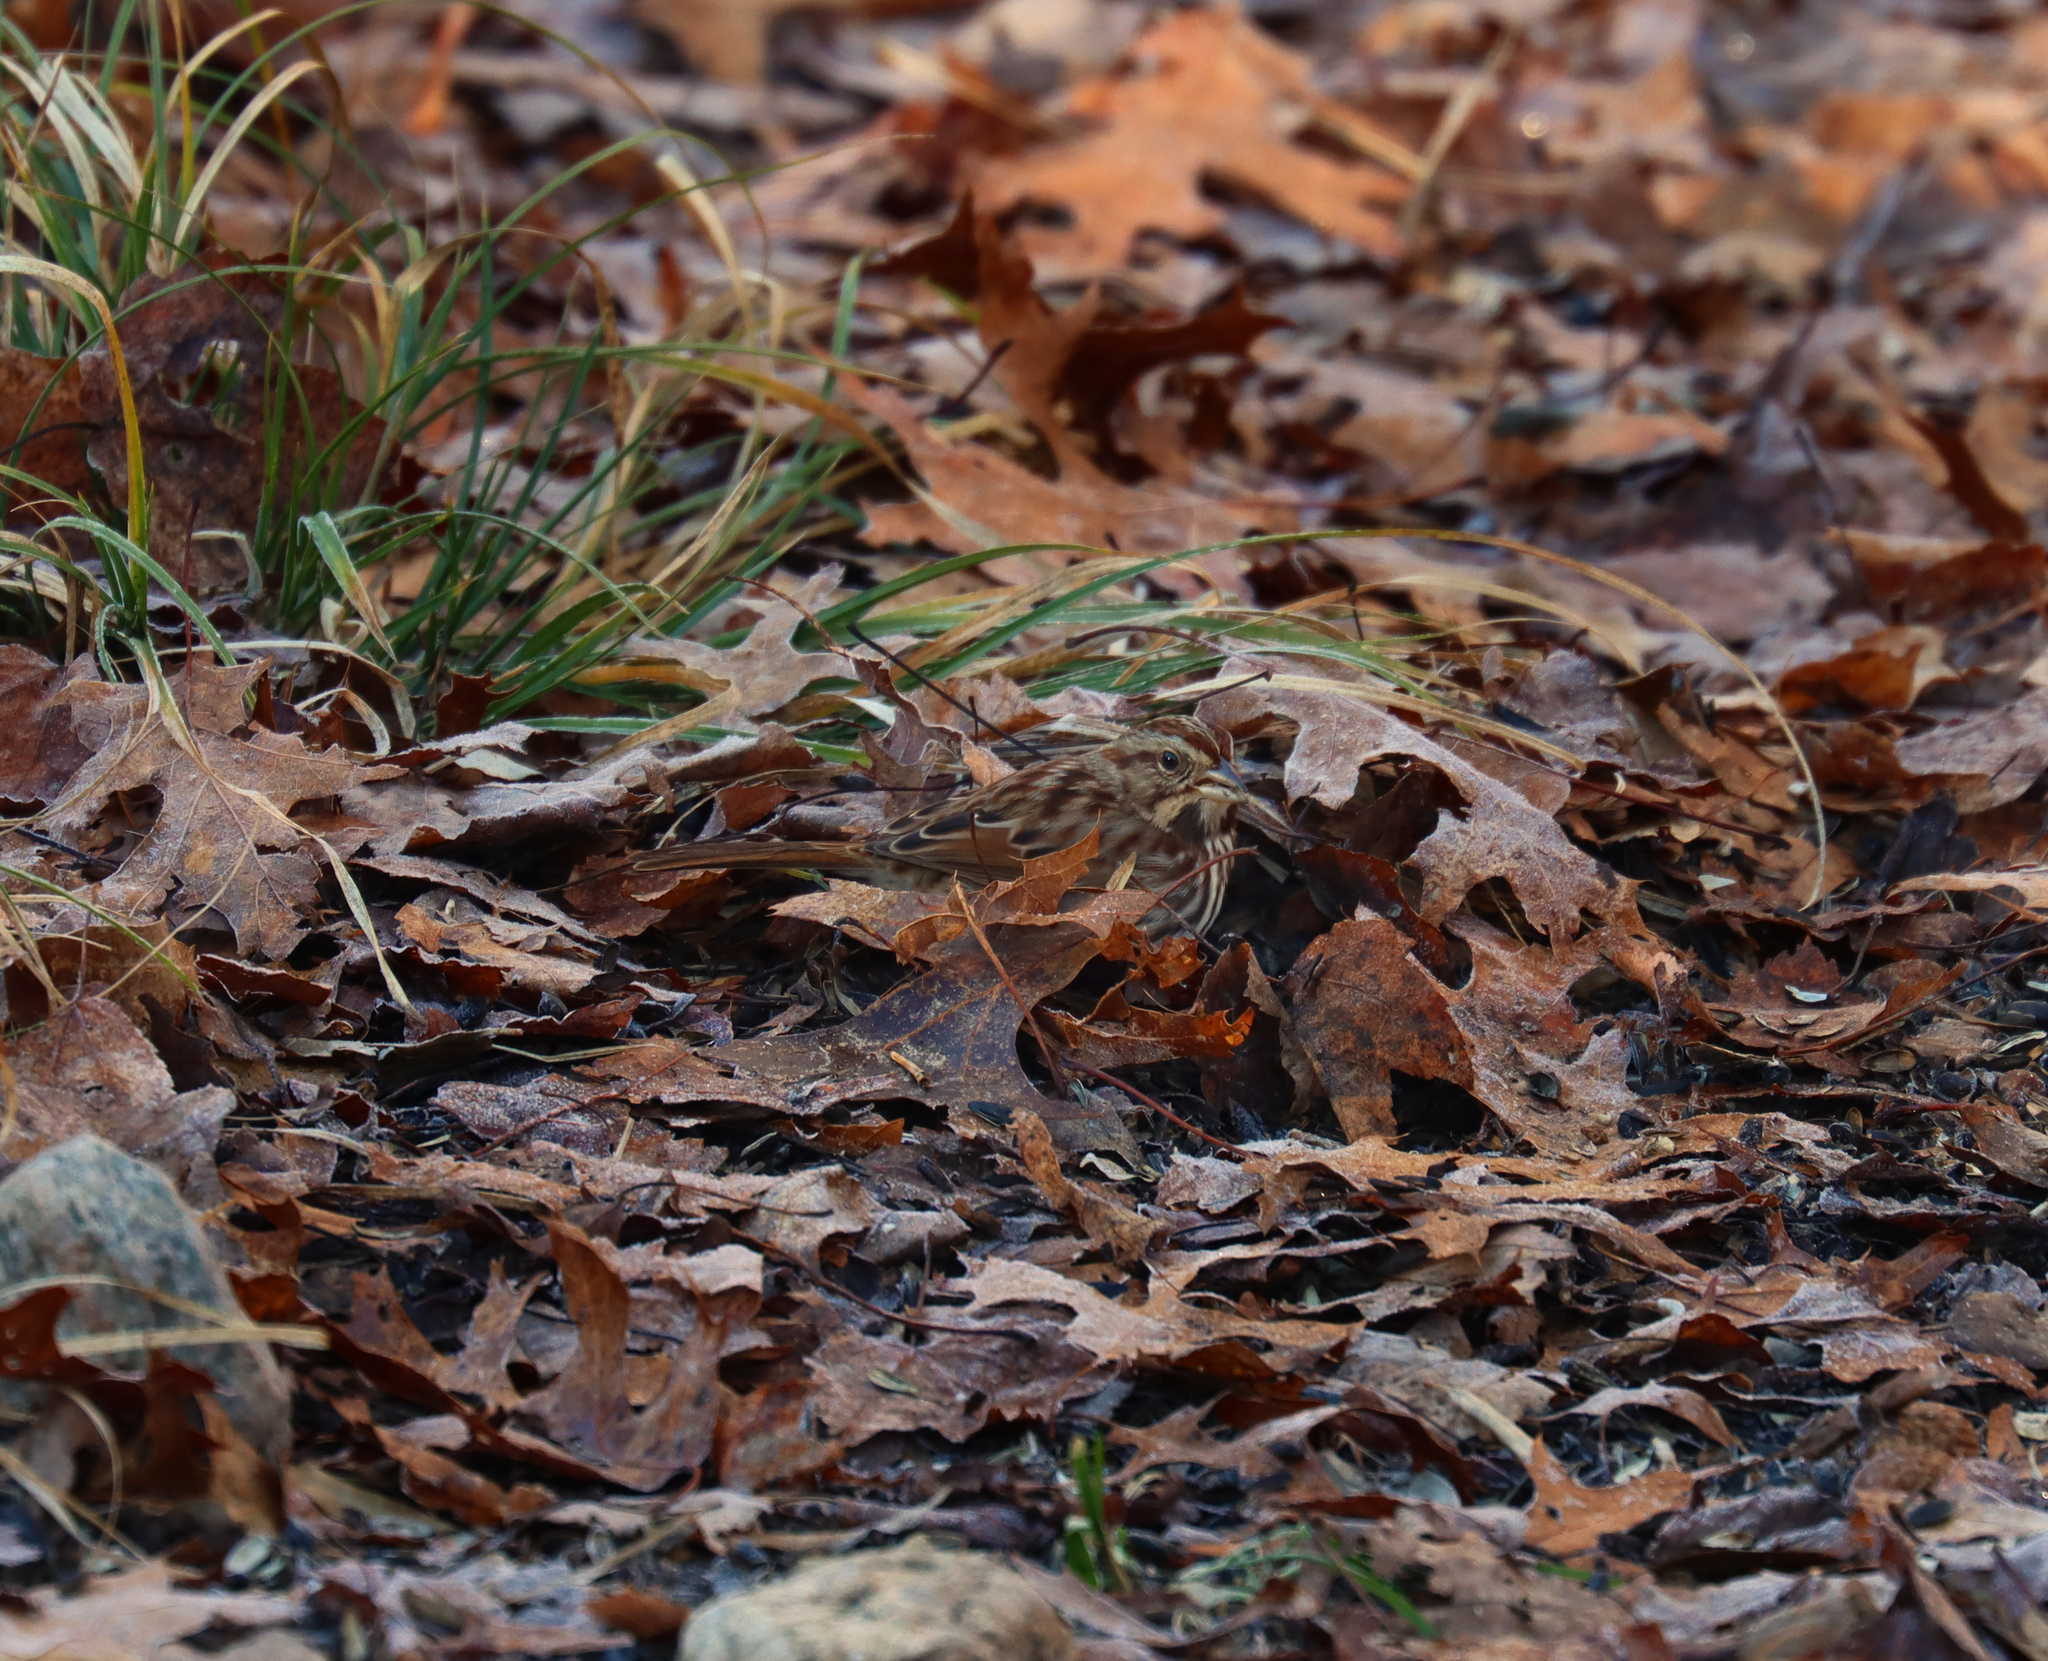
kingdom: Animalia
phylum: Chordata
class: Aves
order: Passeriformes
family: Passerellidae
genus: Melospiza
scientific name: Melospiza melodia
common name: Song sparrow
